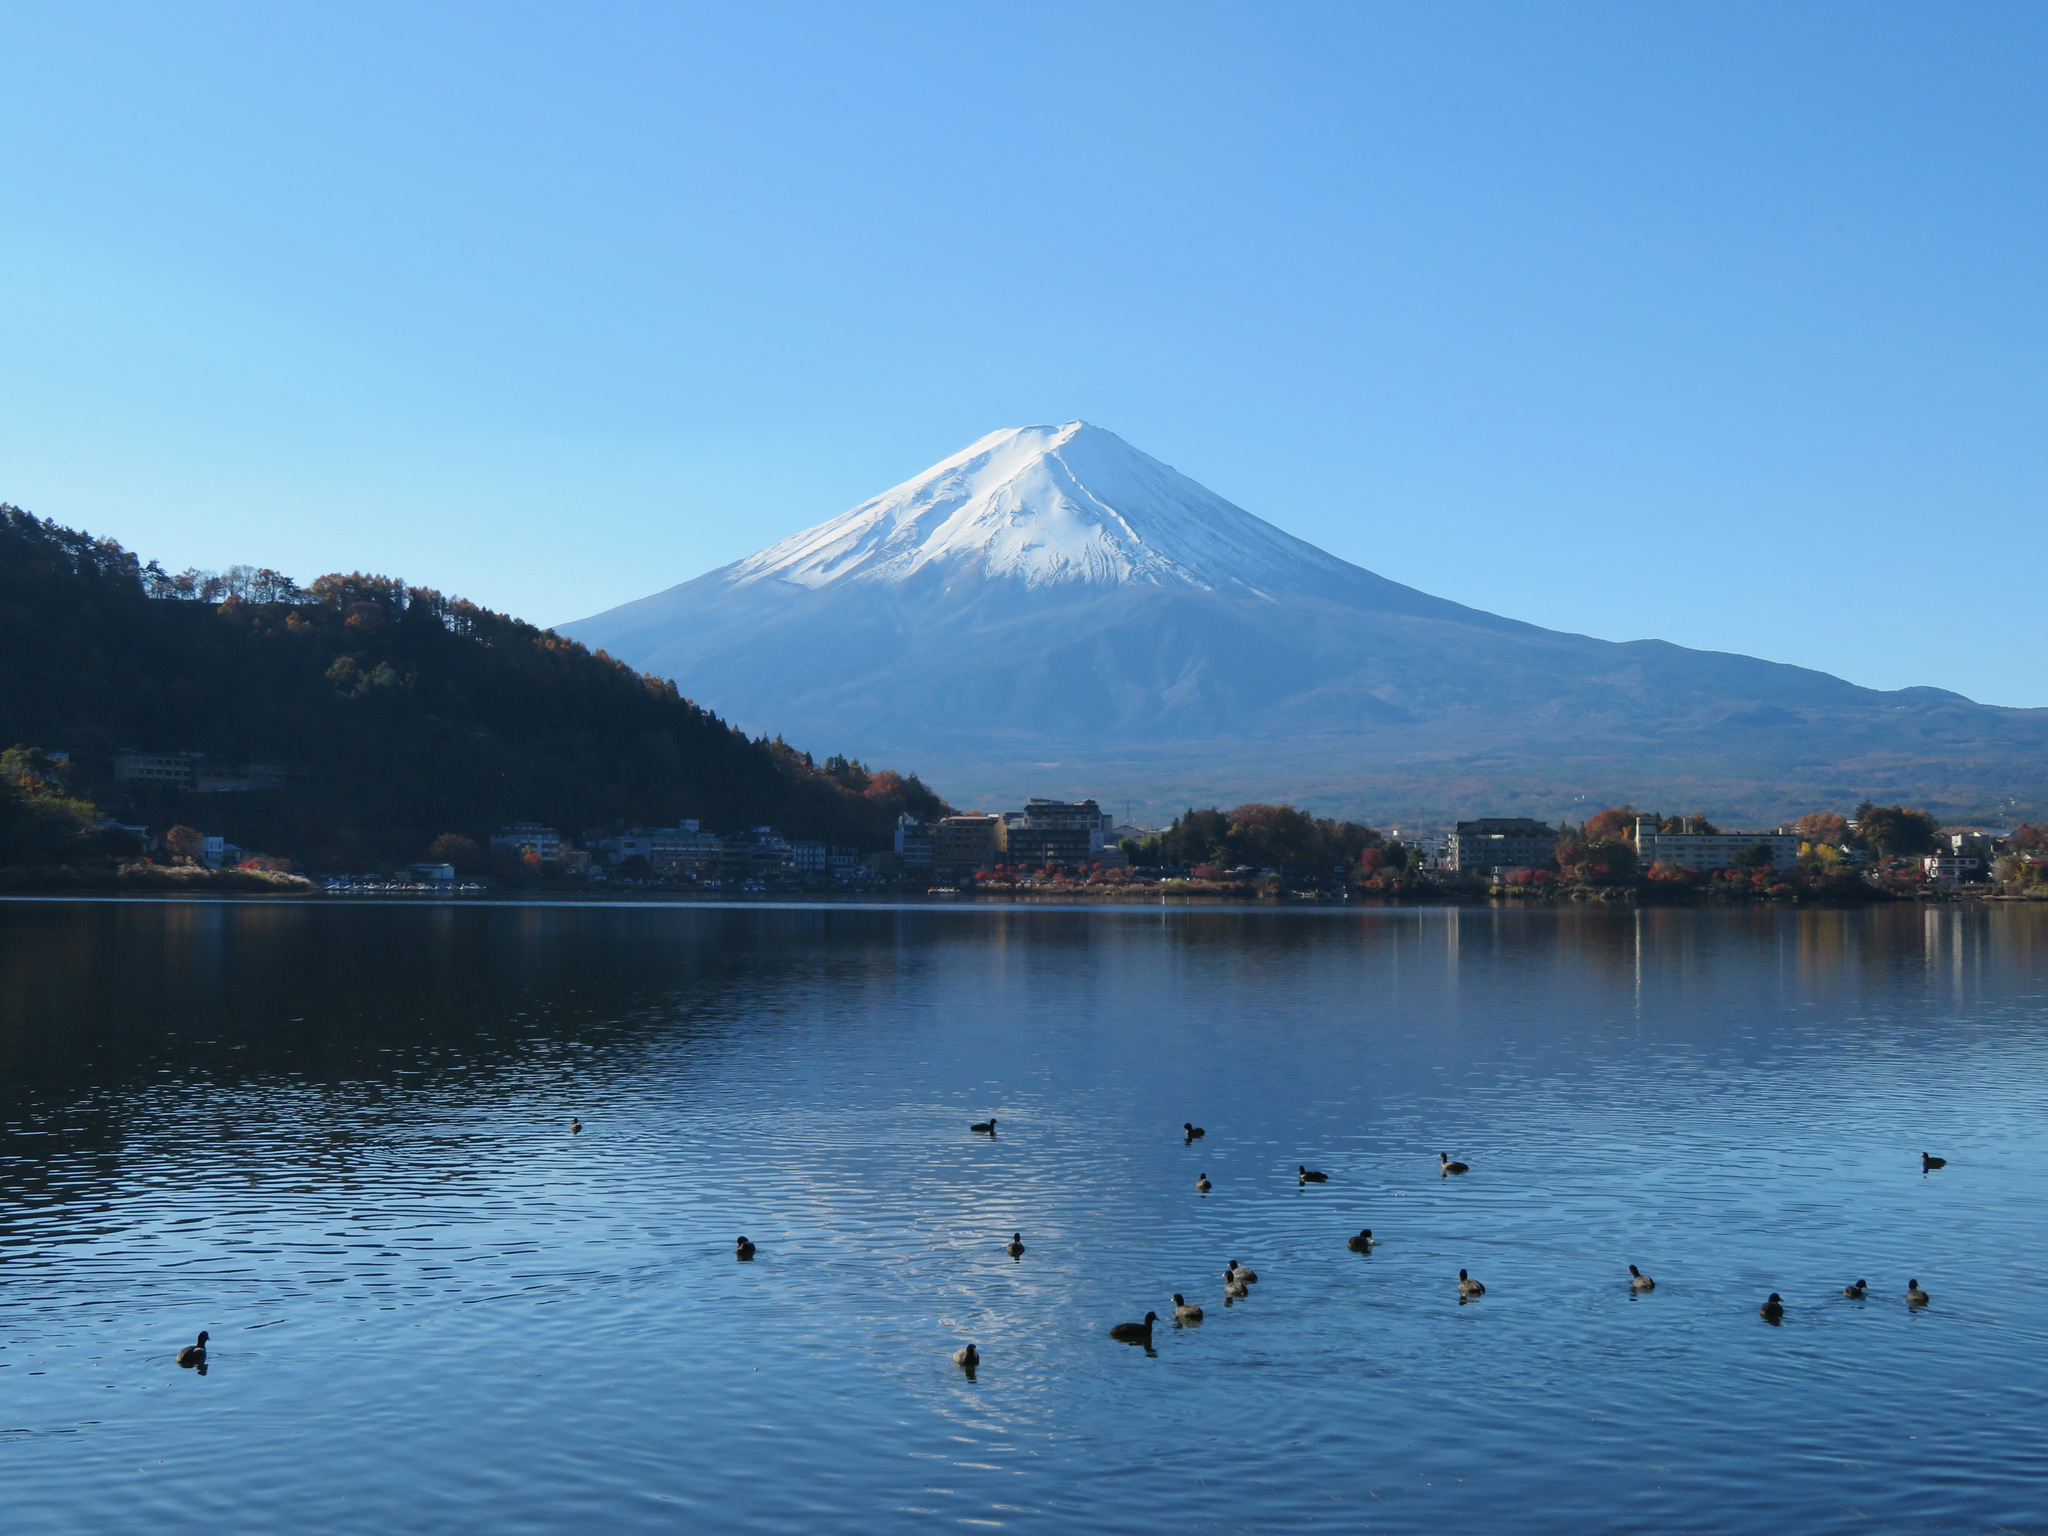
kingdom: Animalia
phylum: Chordata
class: Aves
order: Gruiformes
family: Rallidae
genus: Fulica
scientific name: Fulica atra
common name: Eurasian coot
